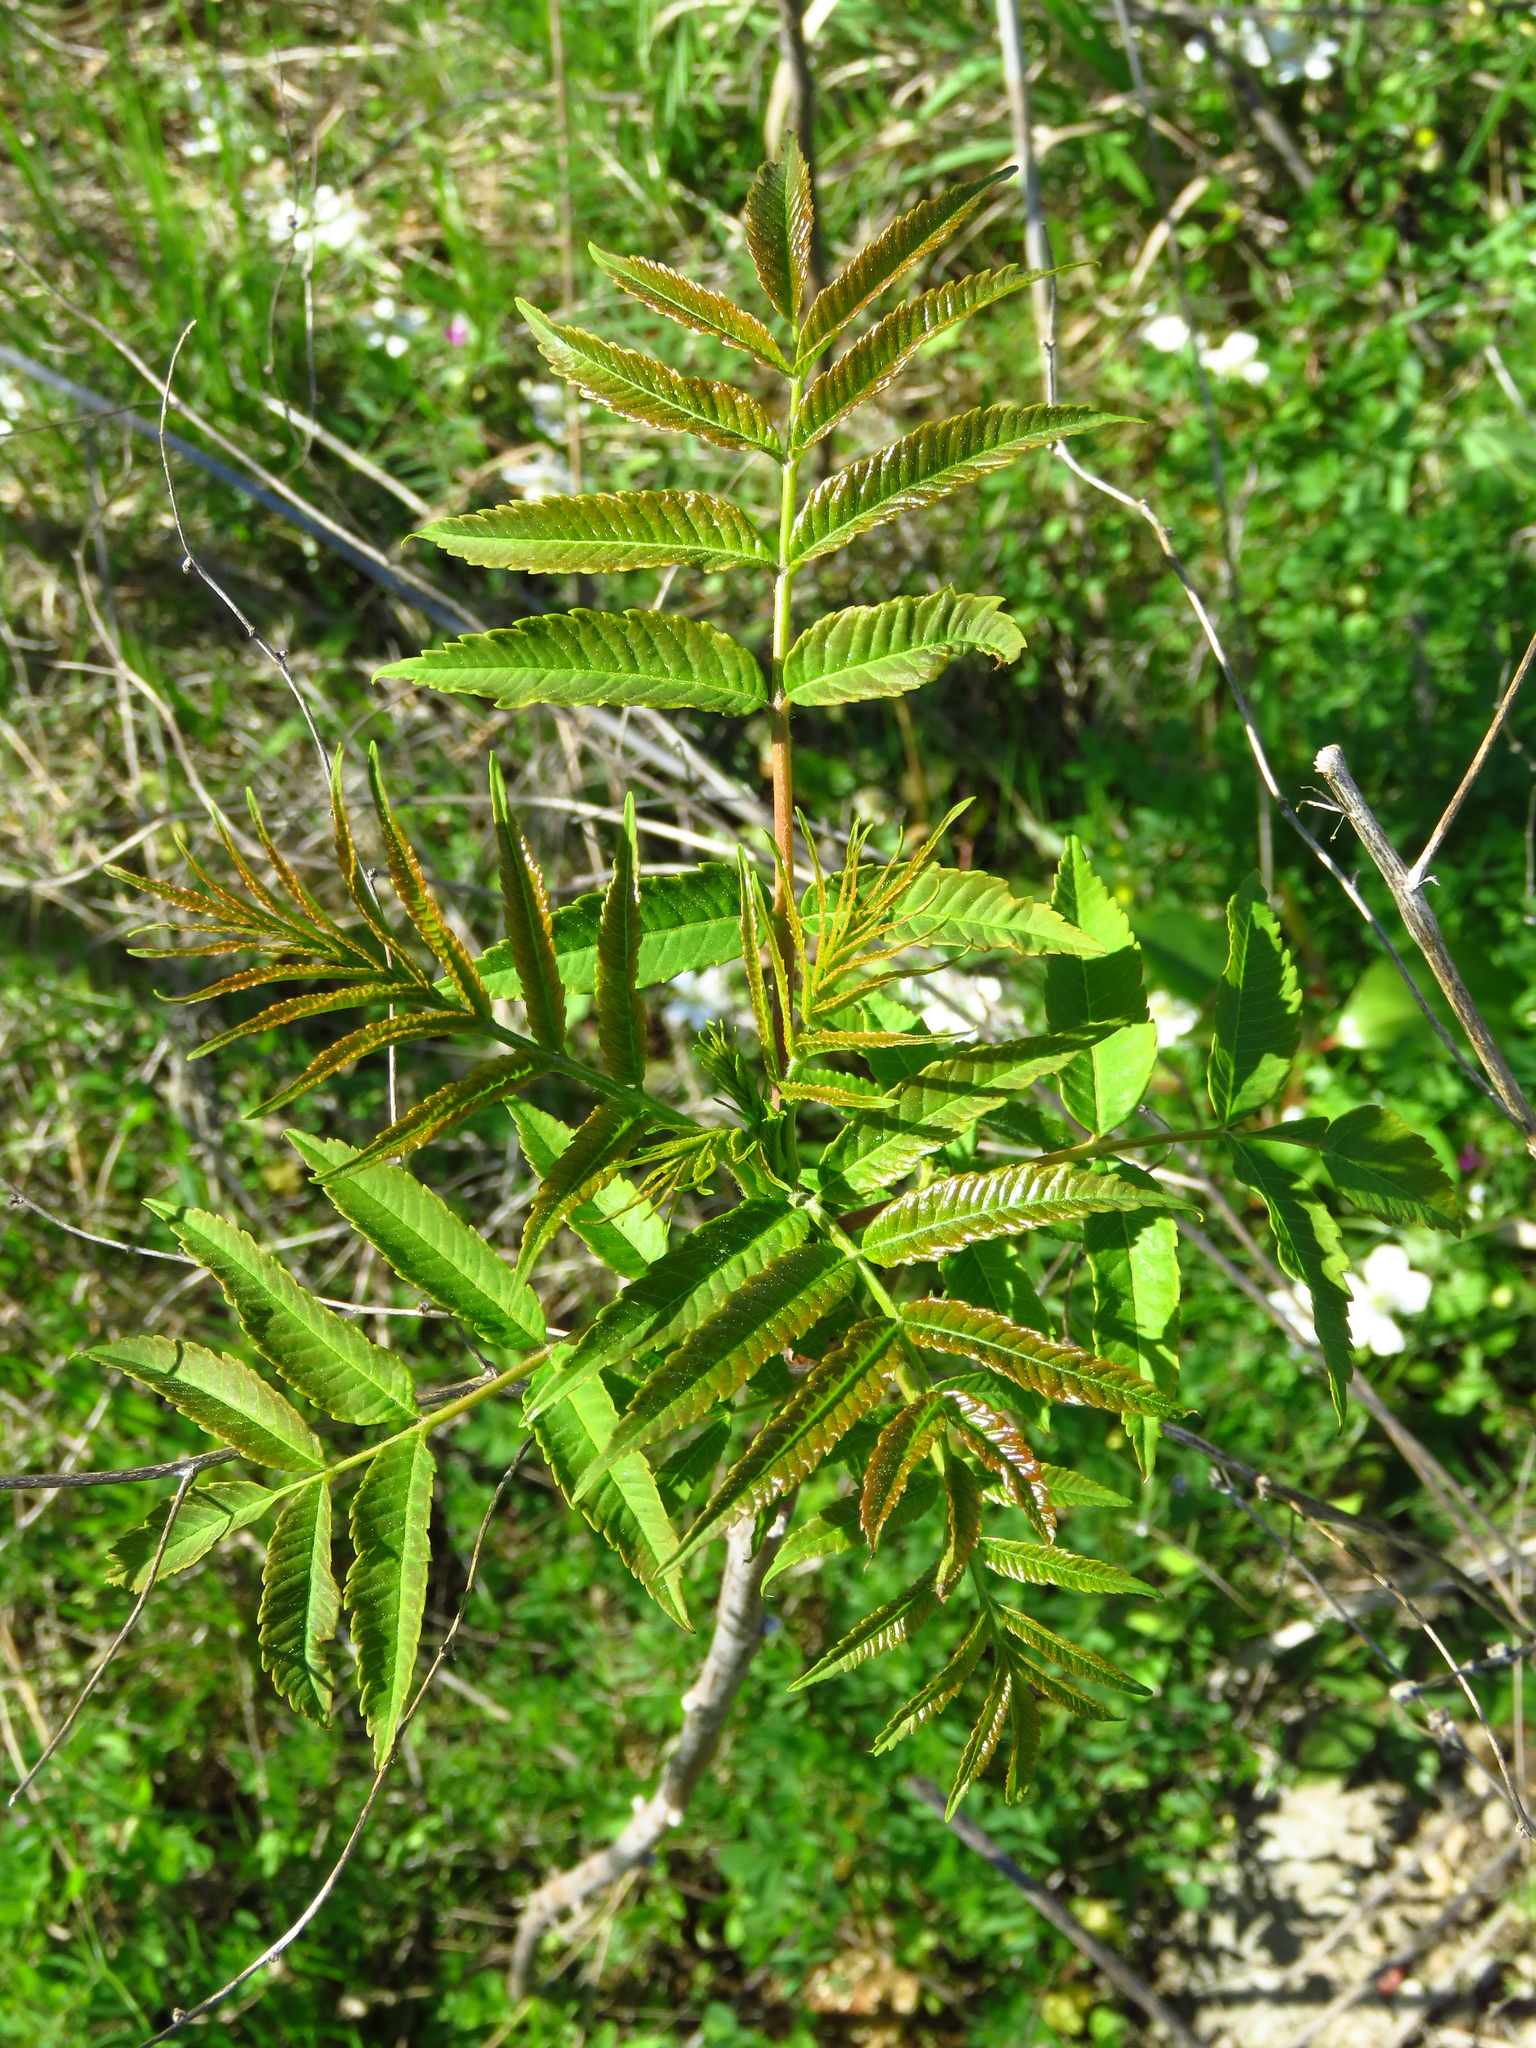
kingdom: Plantae
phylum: Tracheophyta
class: Magnoliopsida
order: Sapindales
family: Anacardiaceae
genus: Rhus
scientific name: Rhus glabra
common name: Scarlet sumac
